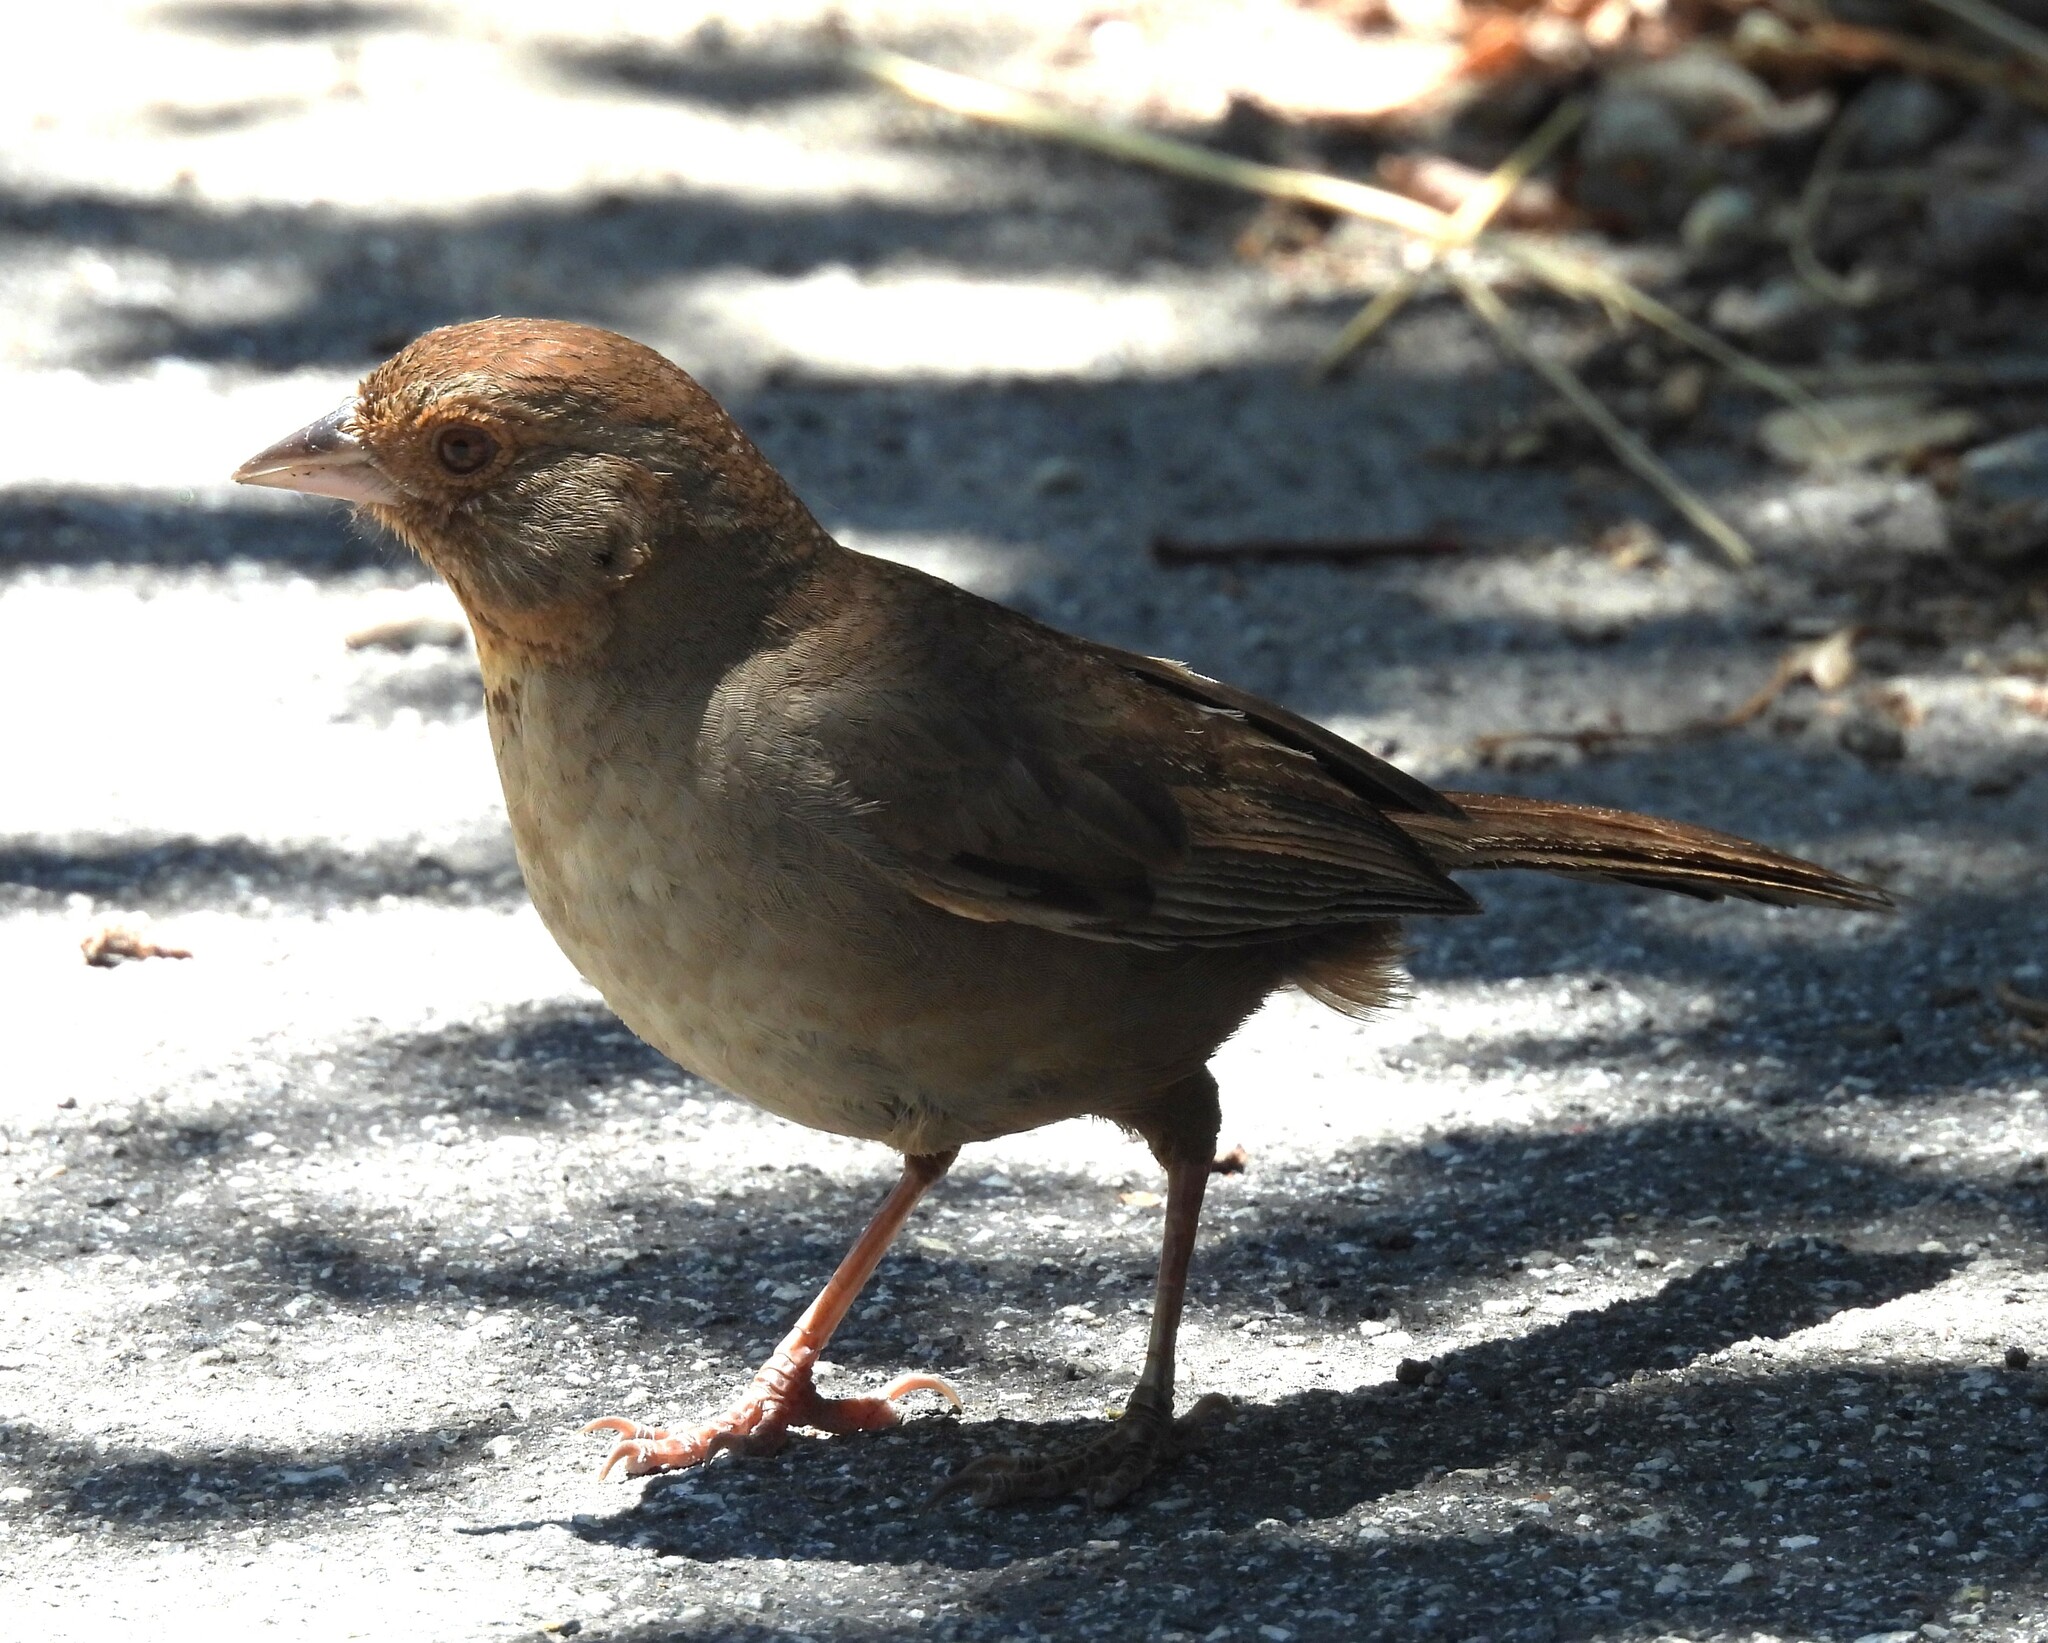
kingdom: Animalia
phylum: Chordata
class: Aves
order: Passeriformes
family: Passerellidae
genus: Melozone
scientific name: Melozone crissalis
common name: California towhee
